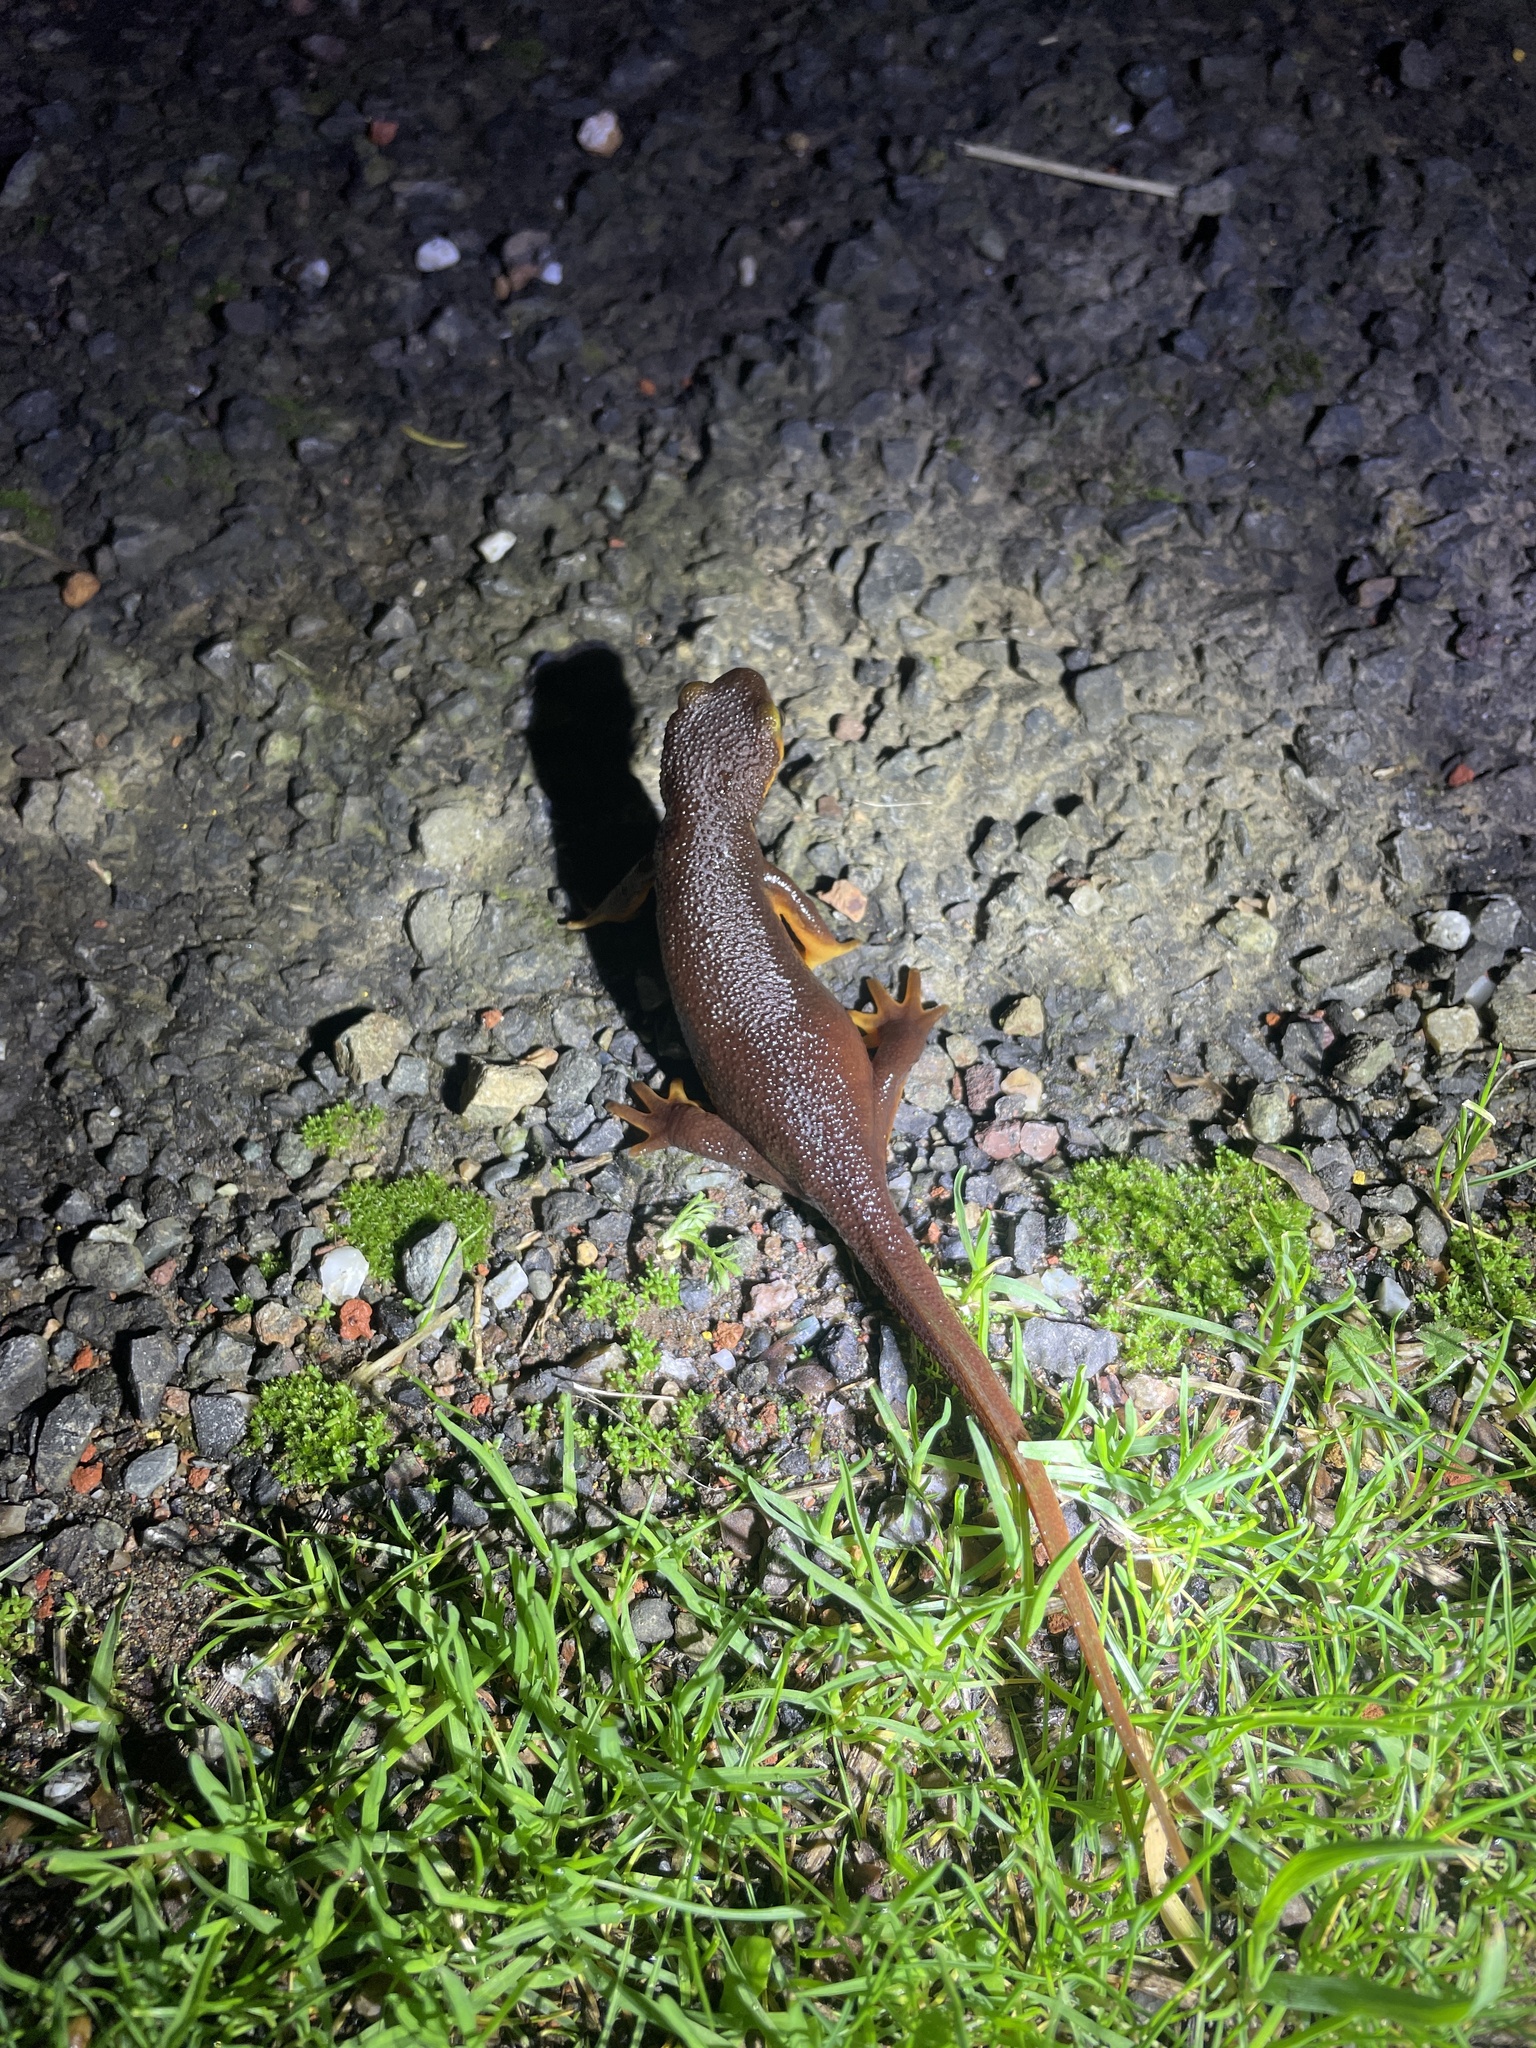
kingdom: Animalia
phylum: Chordata
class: Amphibia
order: Caudata
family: Salamandridae
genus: Taricha
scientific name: Taricha torosa
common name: California newt
